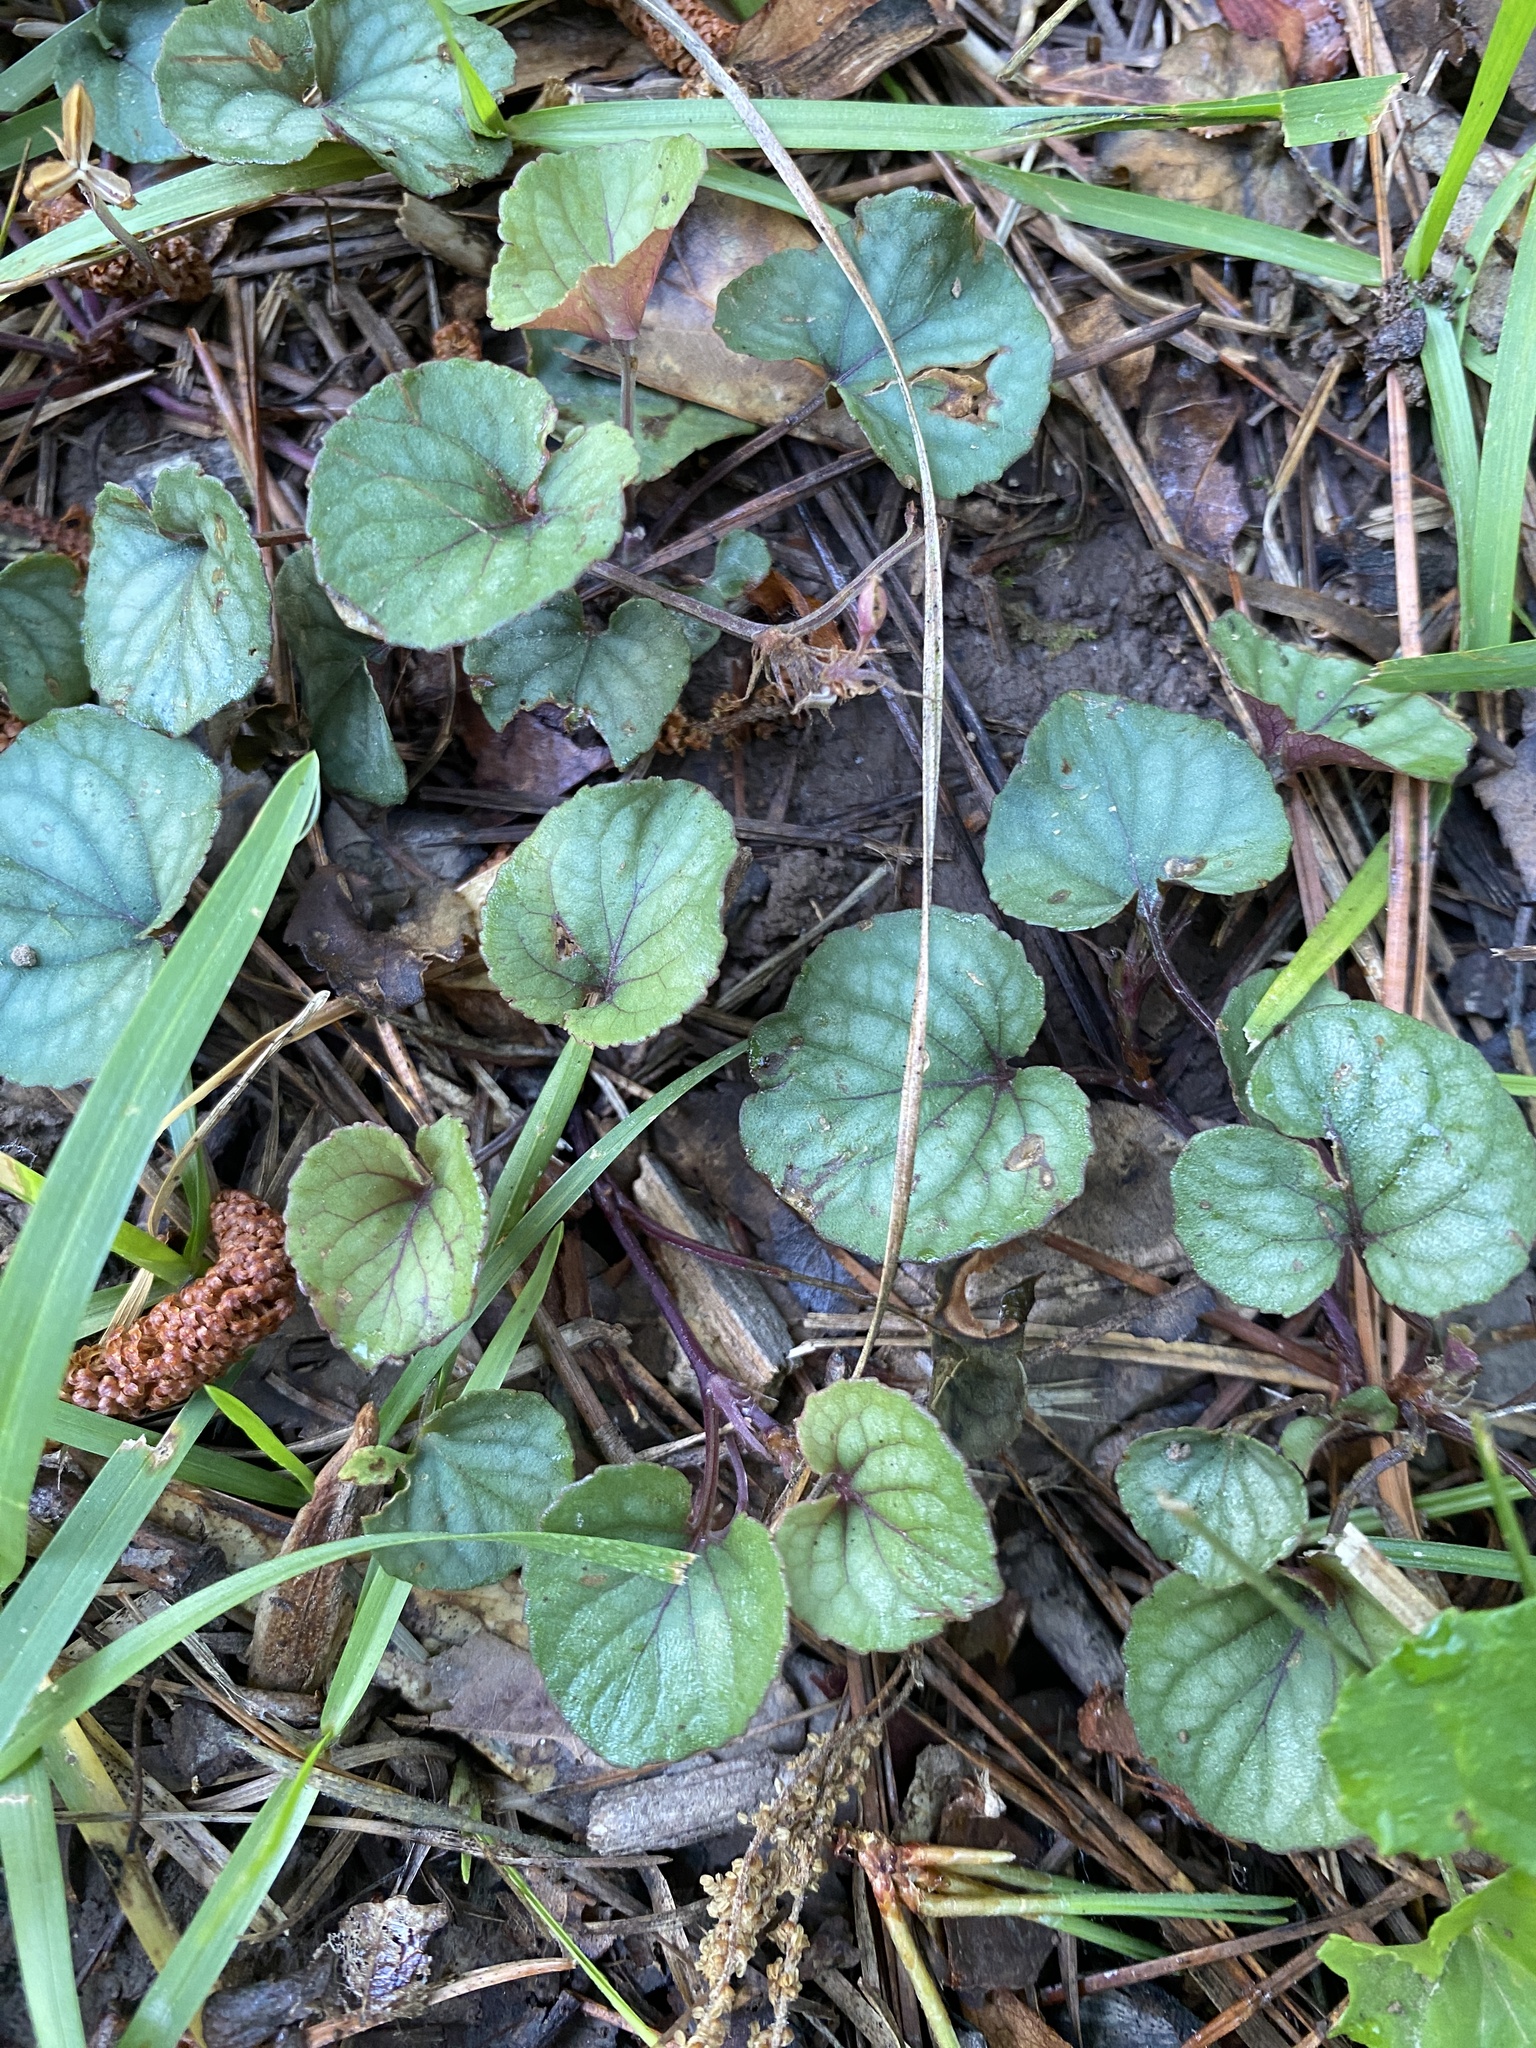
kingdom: Plantae
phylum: Tracheophyta
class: Magnoliopsida
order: Malpighiales
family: Violaceae
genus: Viola
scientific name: Viola walteri
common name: Prostrate southern violet
